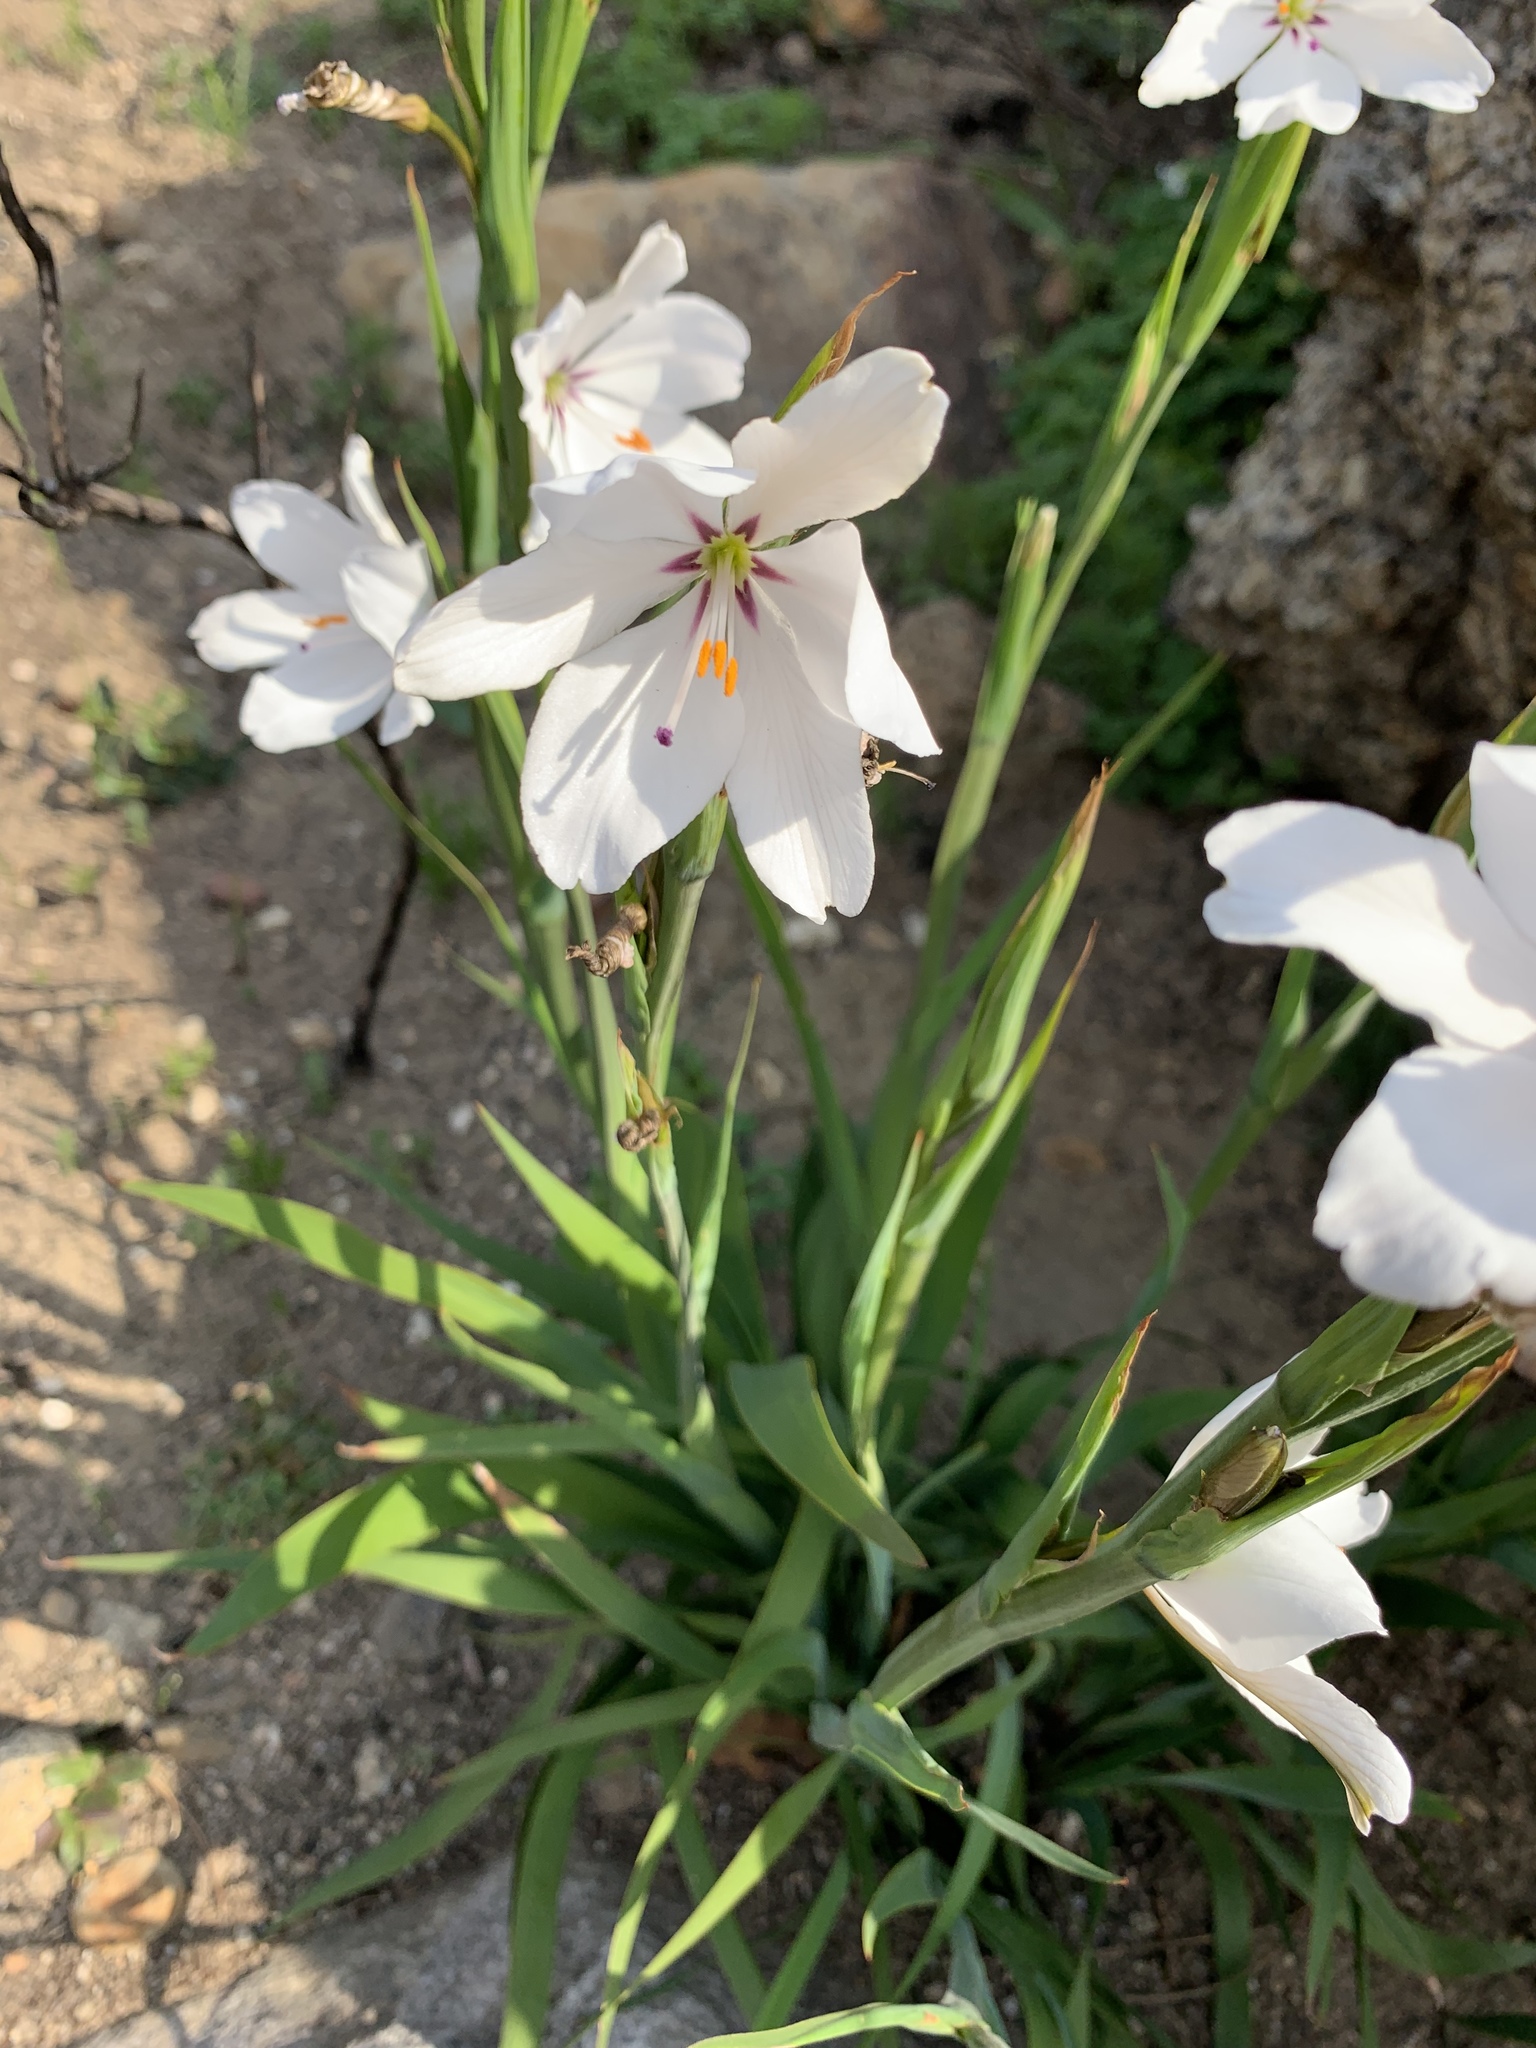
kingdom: Plantae
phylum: Tracheophyta
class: Liliopsida
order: Asparagales
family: Iridaceae
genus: Aristea
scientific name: Aristea spiralis
